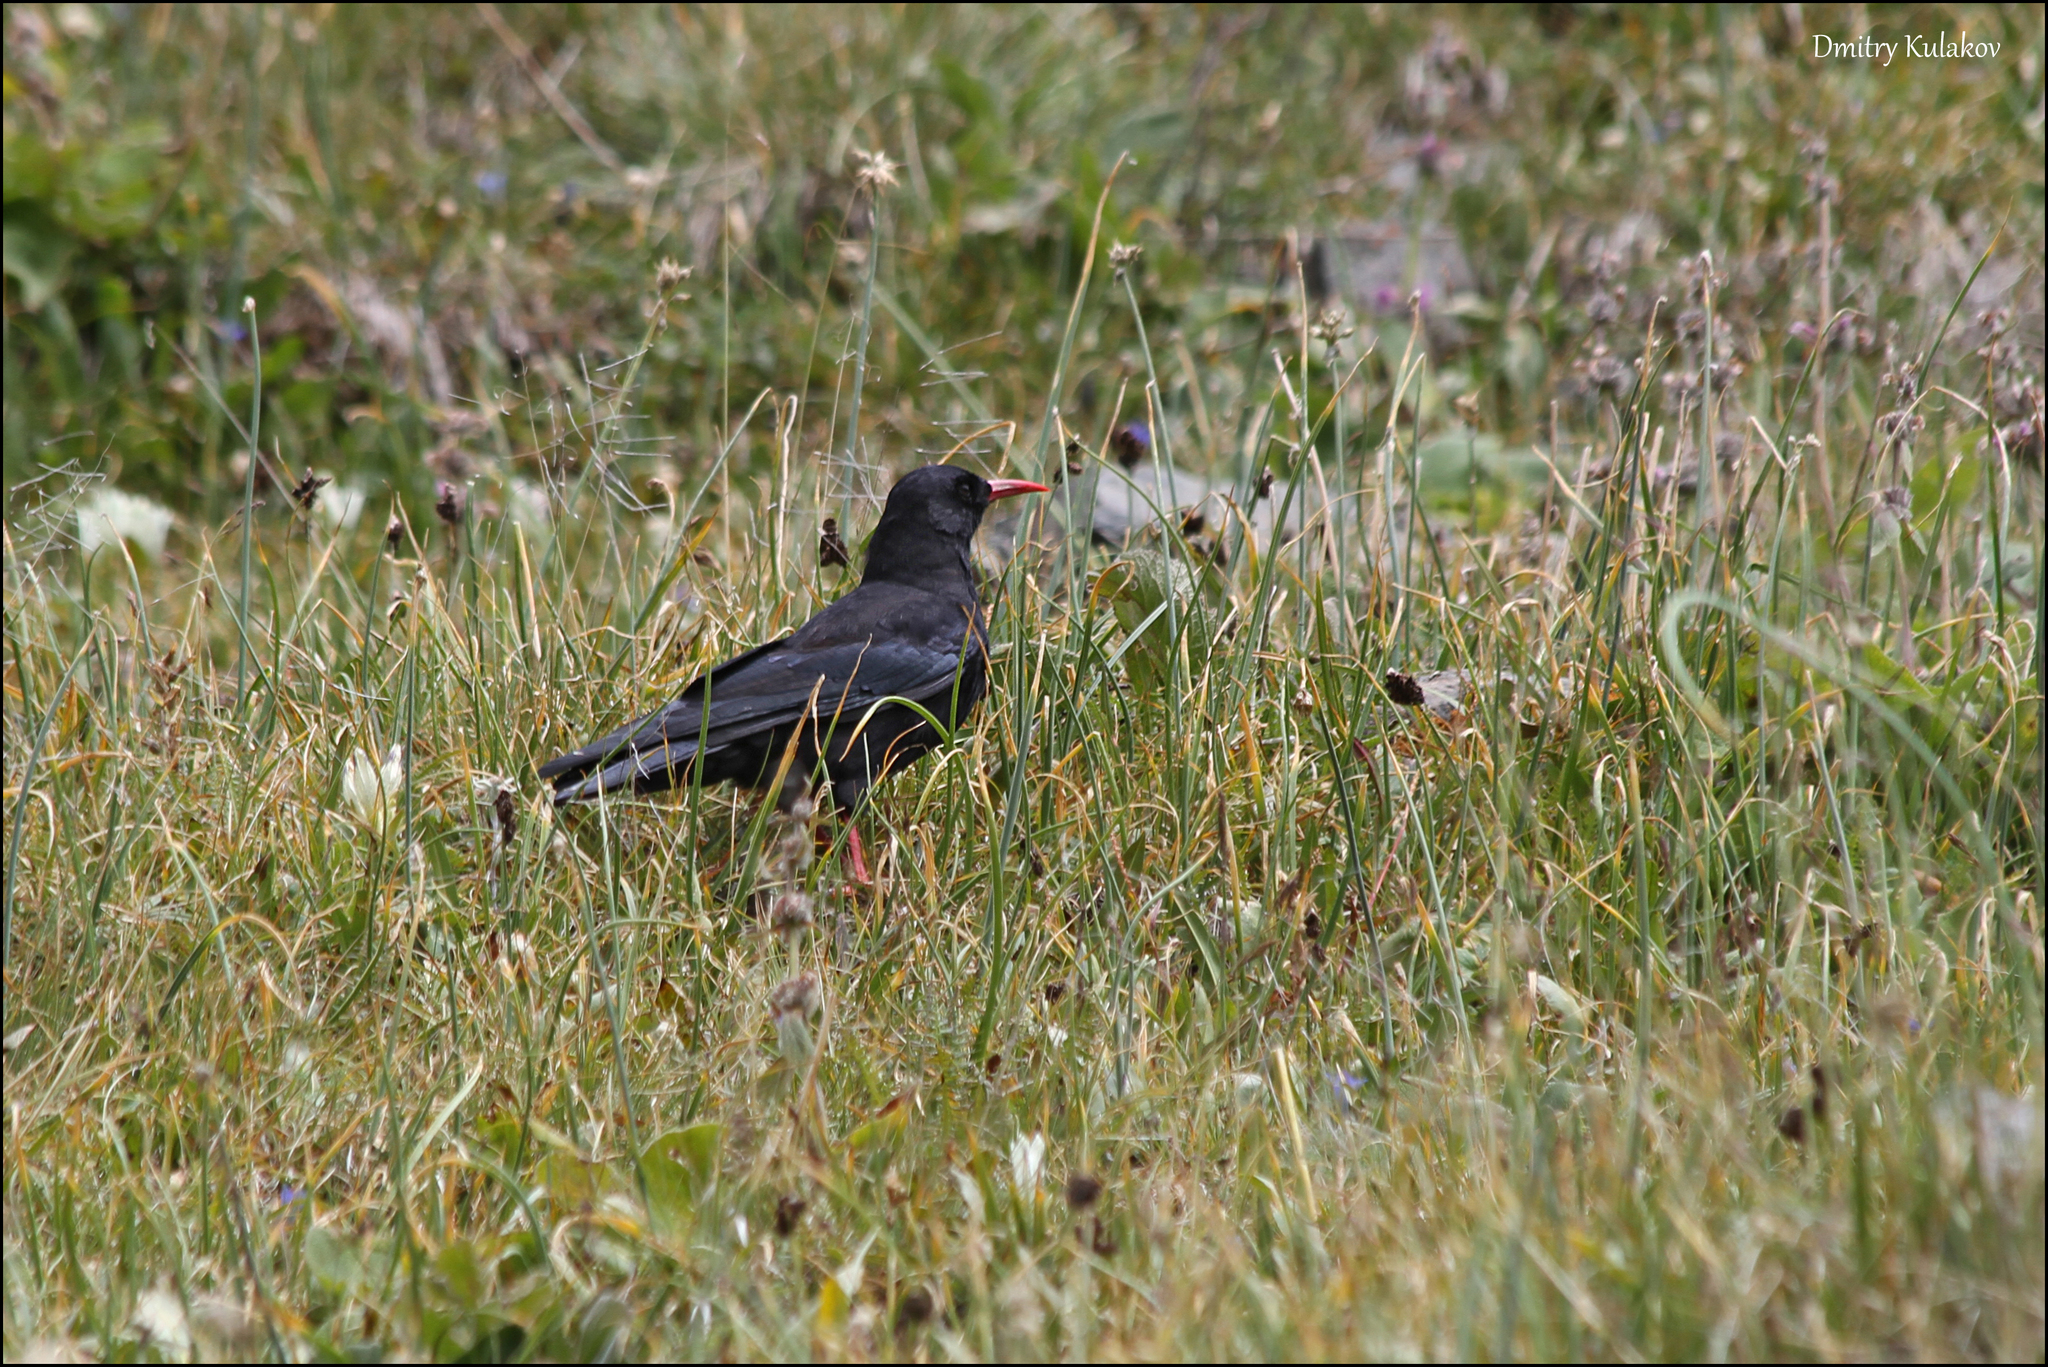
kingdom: Animalia
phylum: Chordata
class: Aves
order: Passeriformes
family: Corvidae
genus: Pyrrhocorax
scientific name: Pyrrhocorax pyrrhocorax
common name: Red-billed chough
